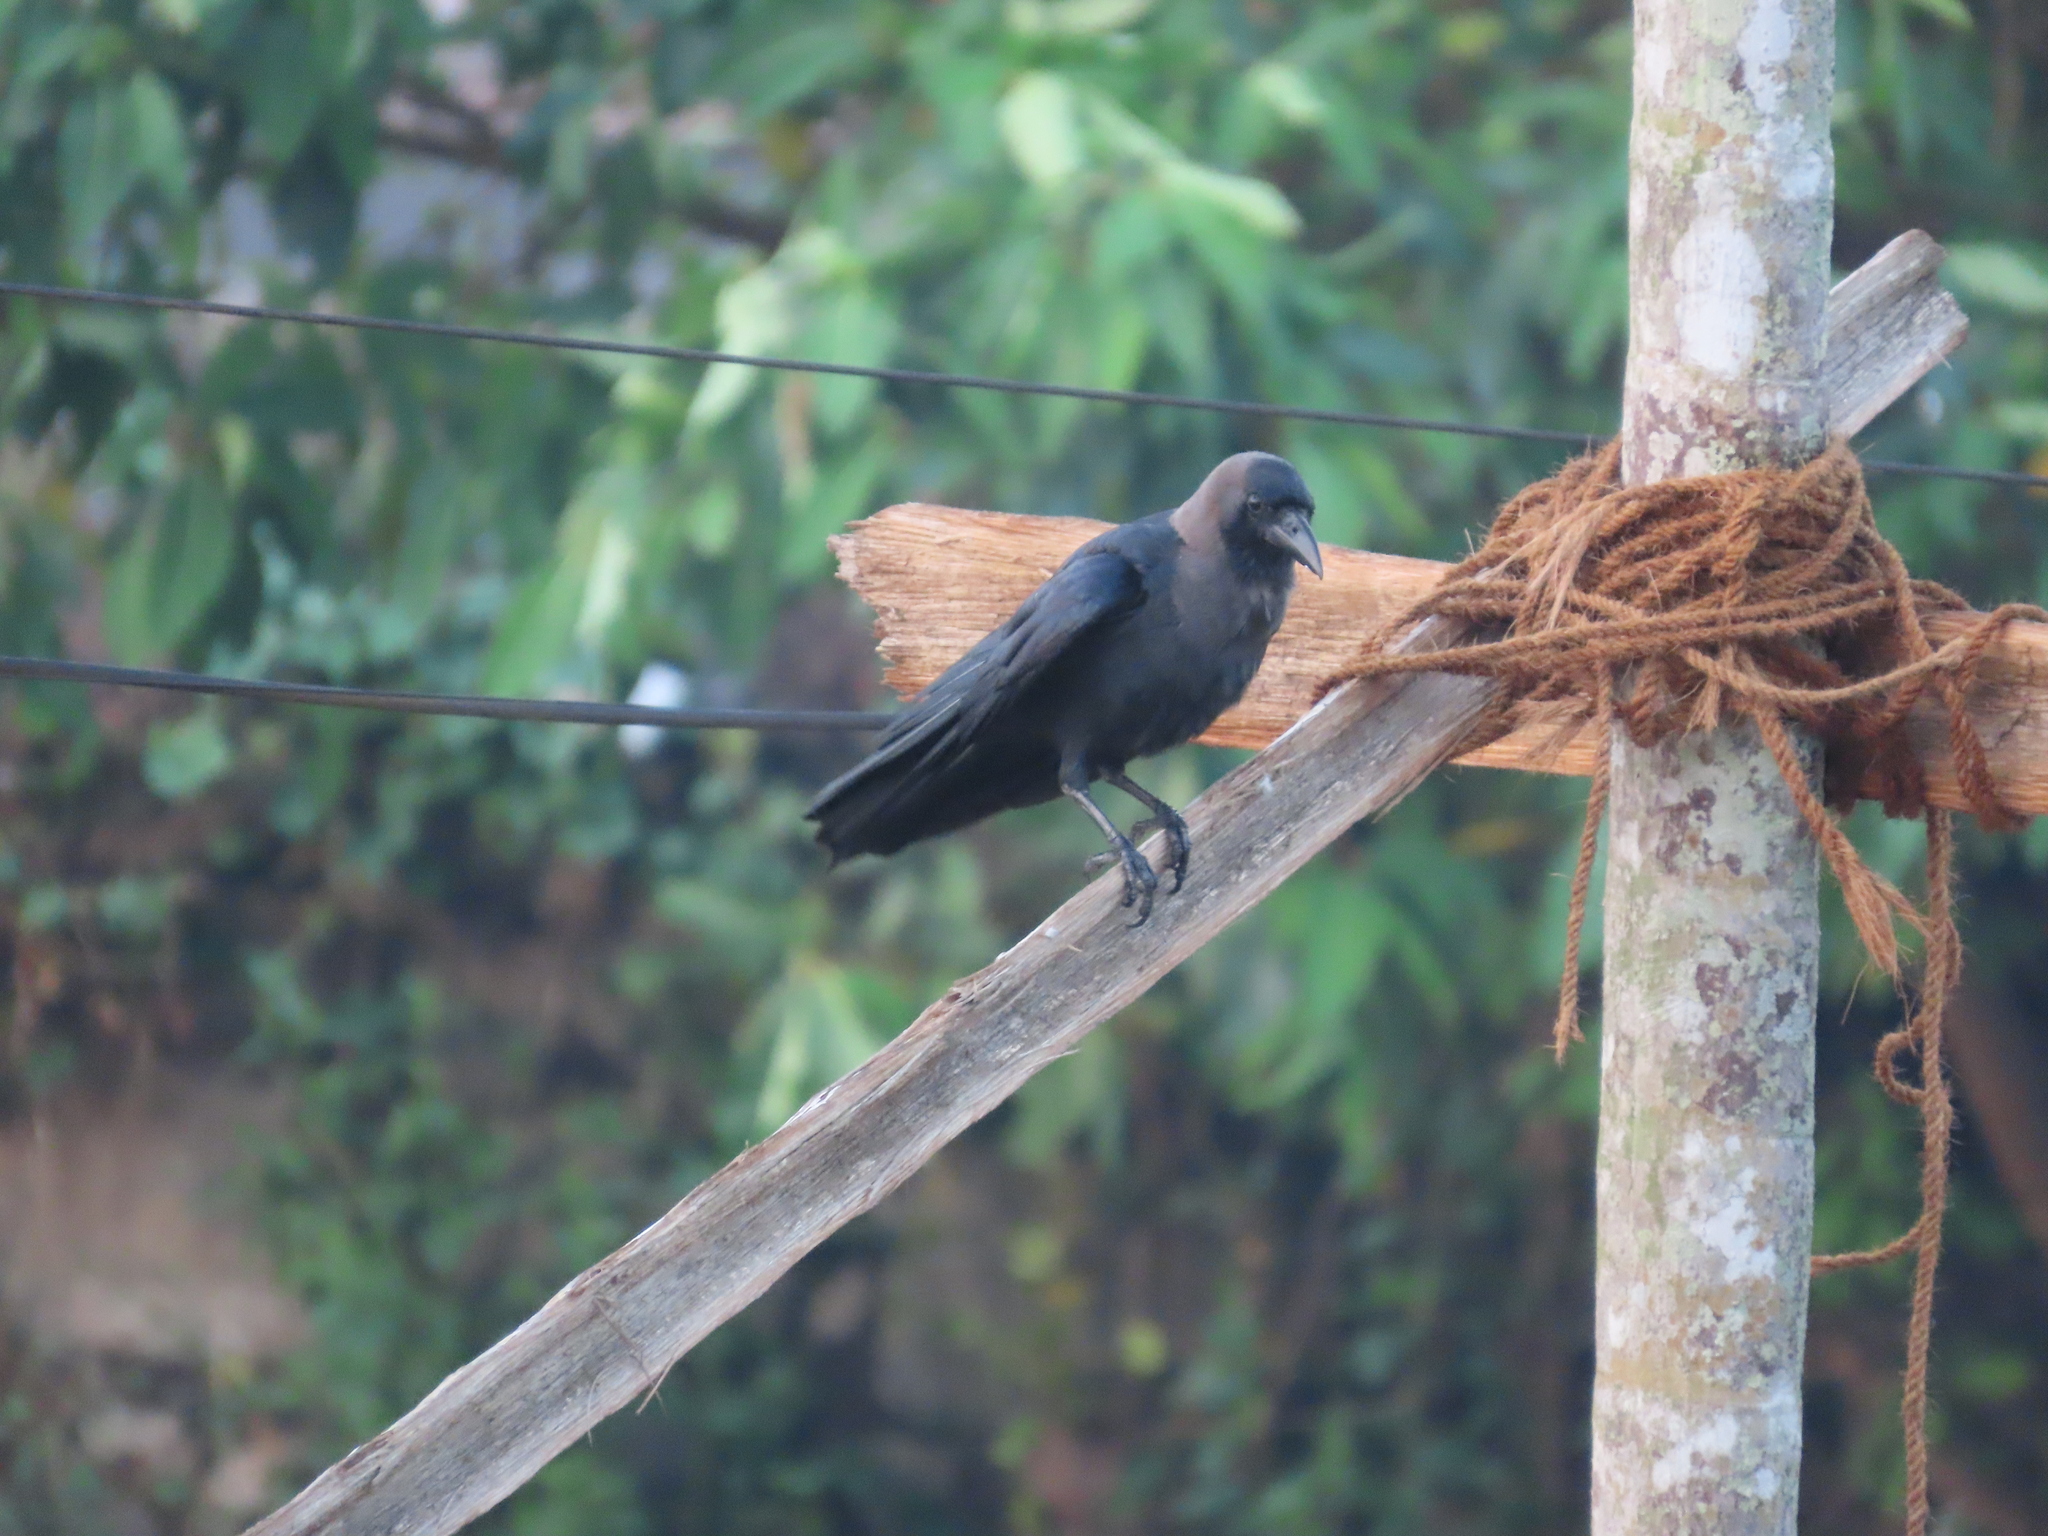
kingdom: Animalia
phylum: Chordata
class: Aves
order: Passeriformes
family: Corvidae
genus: Corvus
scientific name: Corvus splendens
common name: House crow
